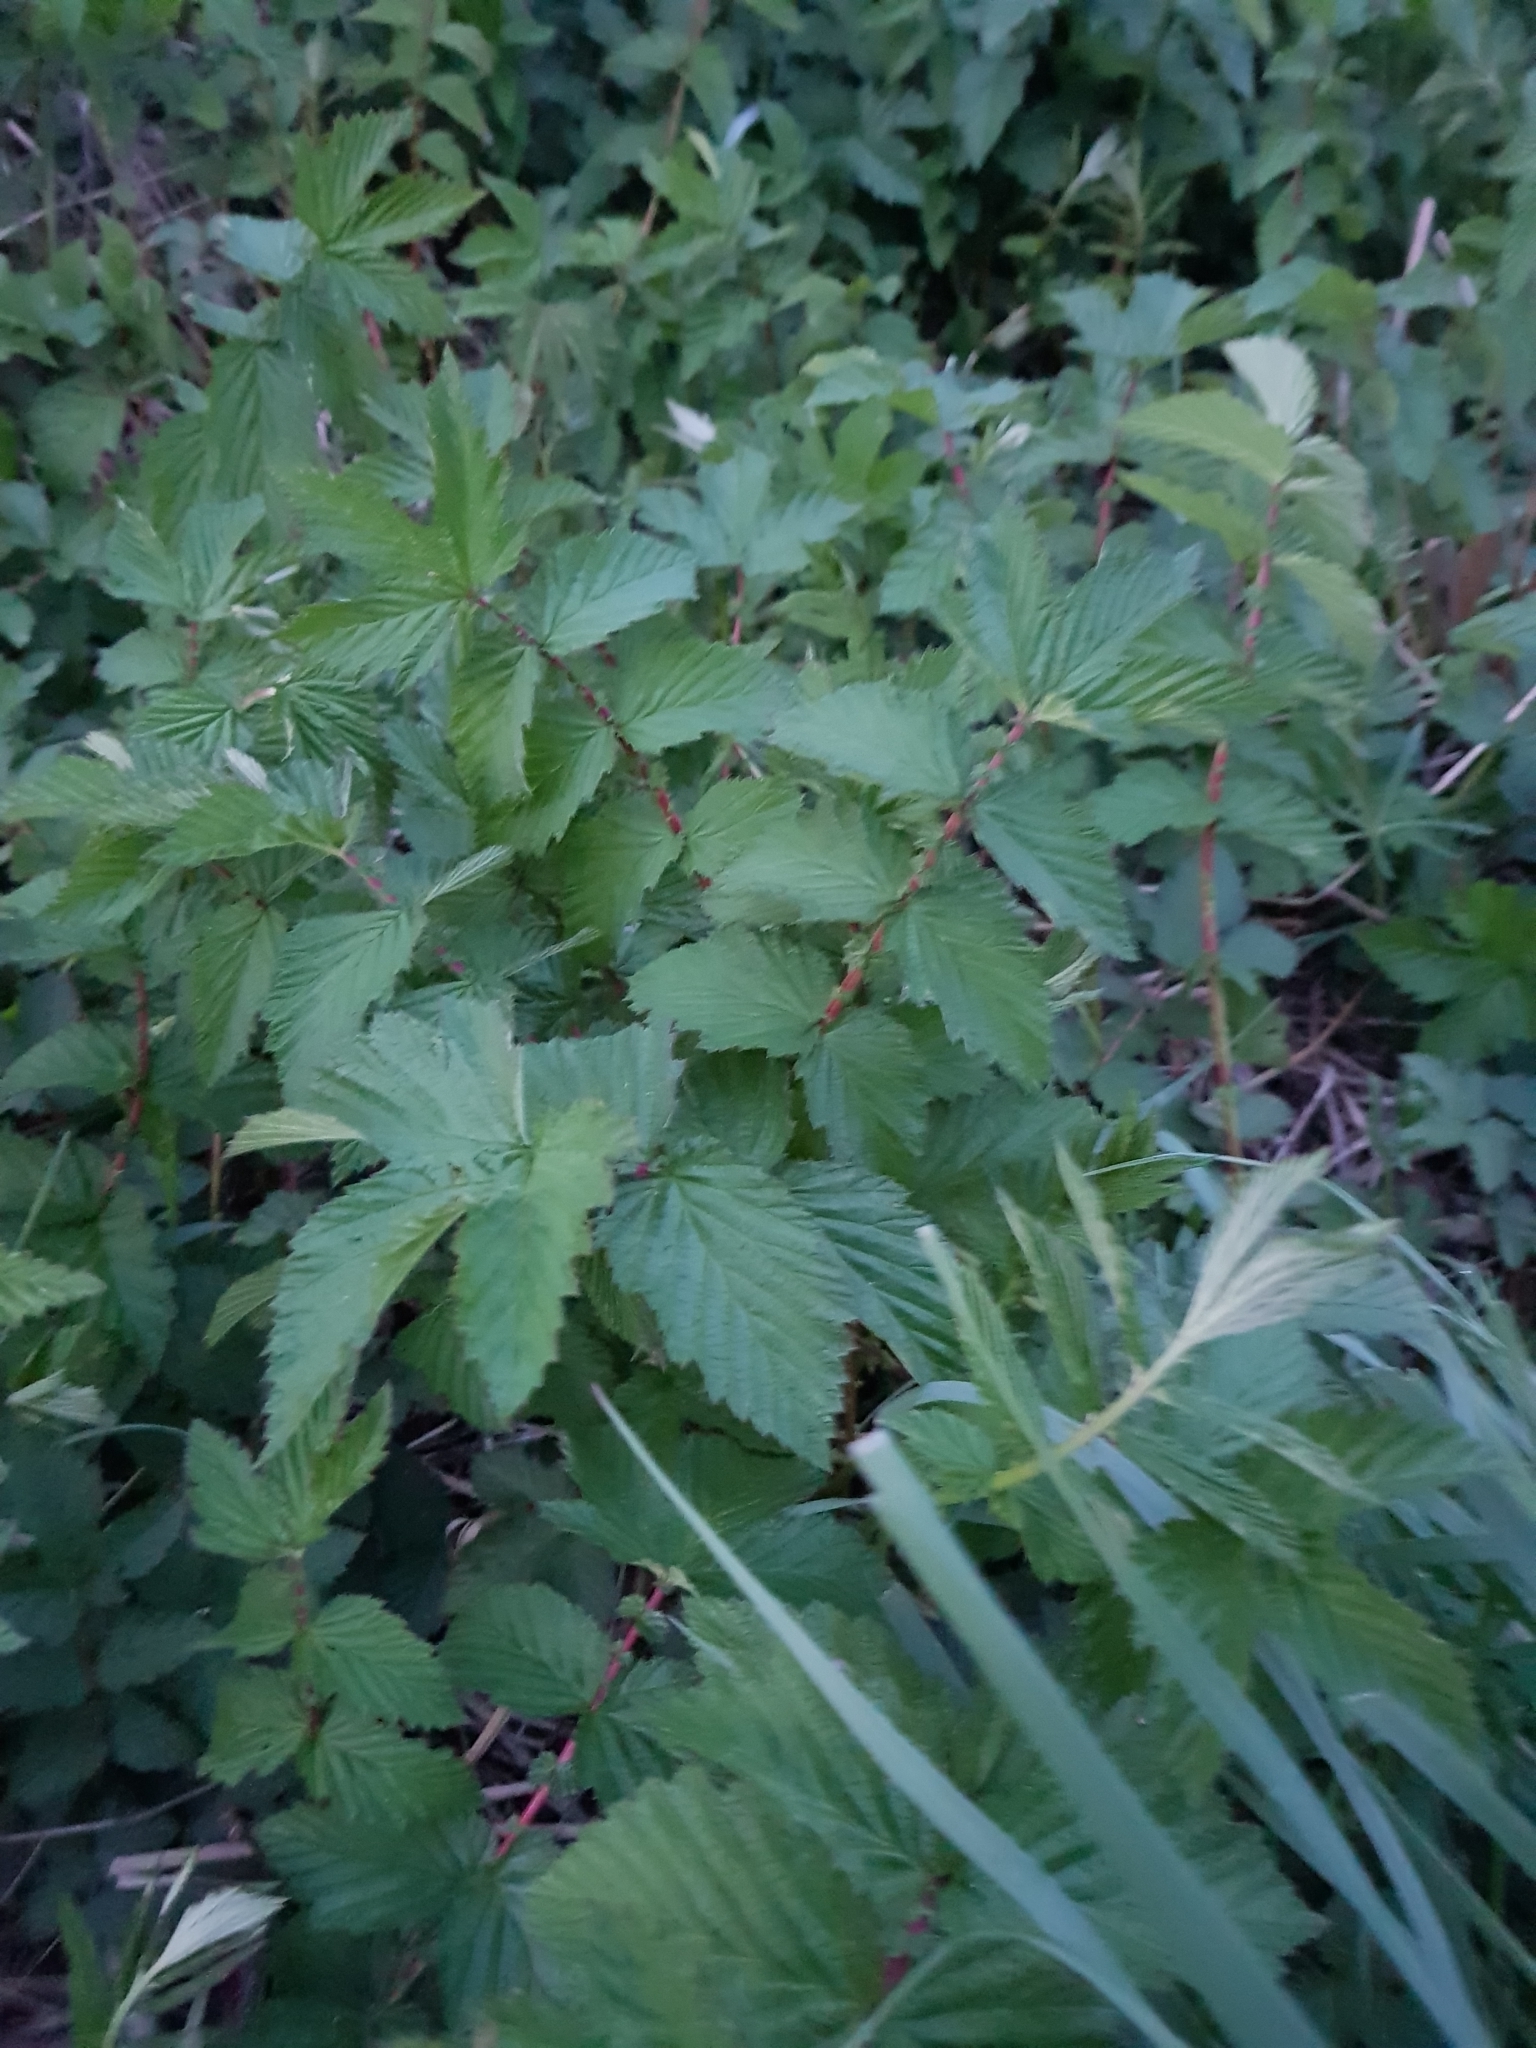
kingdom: Plantae
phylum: Tracheophyta
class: Magnoliopsida
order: Rosales
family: Rosaceae
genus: Filipendula
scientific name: Filipendula ulmaria
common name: Meadowsweet
